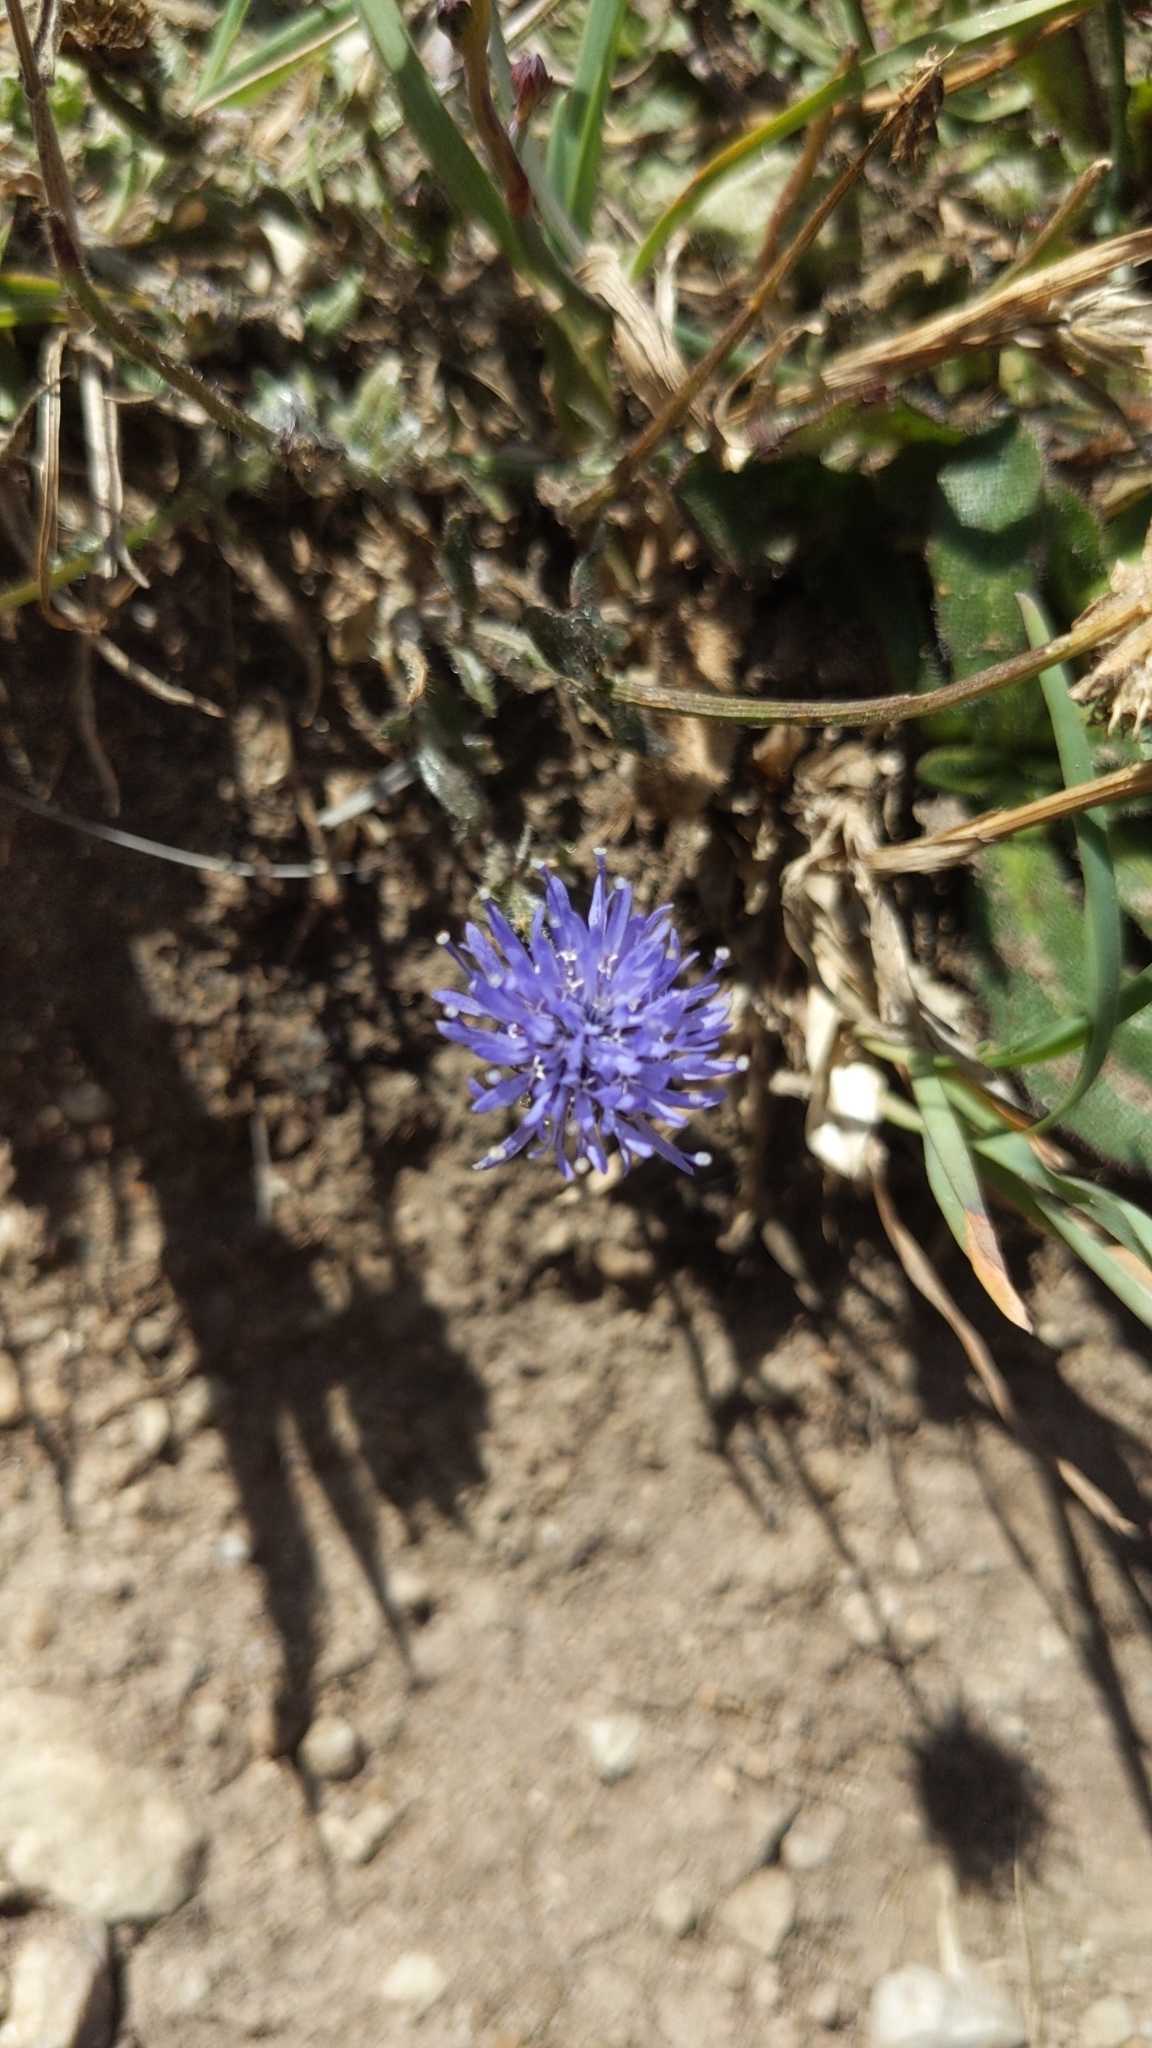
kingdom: Plantae
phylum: Tracheophyta
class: Magnoliopsida
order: Asterales
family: Campanulaceae
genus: Jasione
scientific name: Jasione montana
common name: Sheep's-bit
